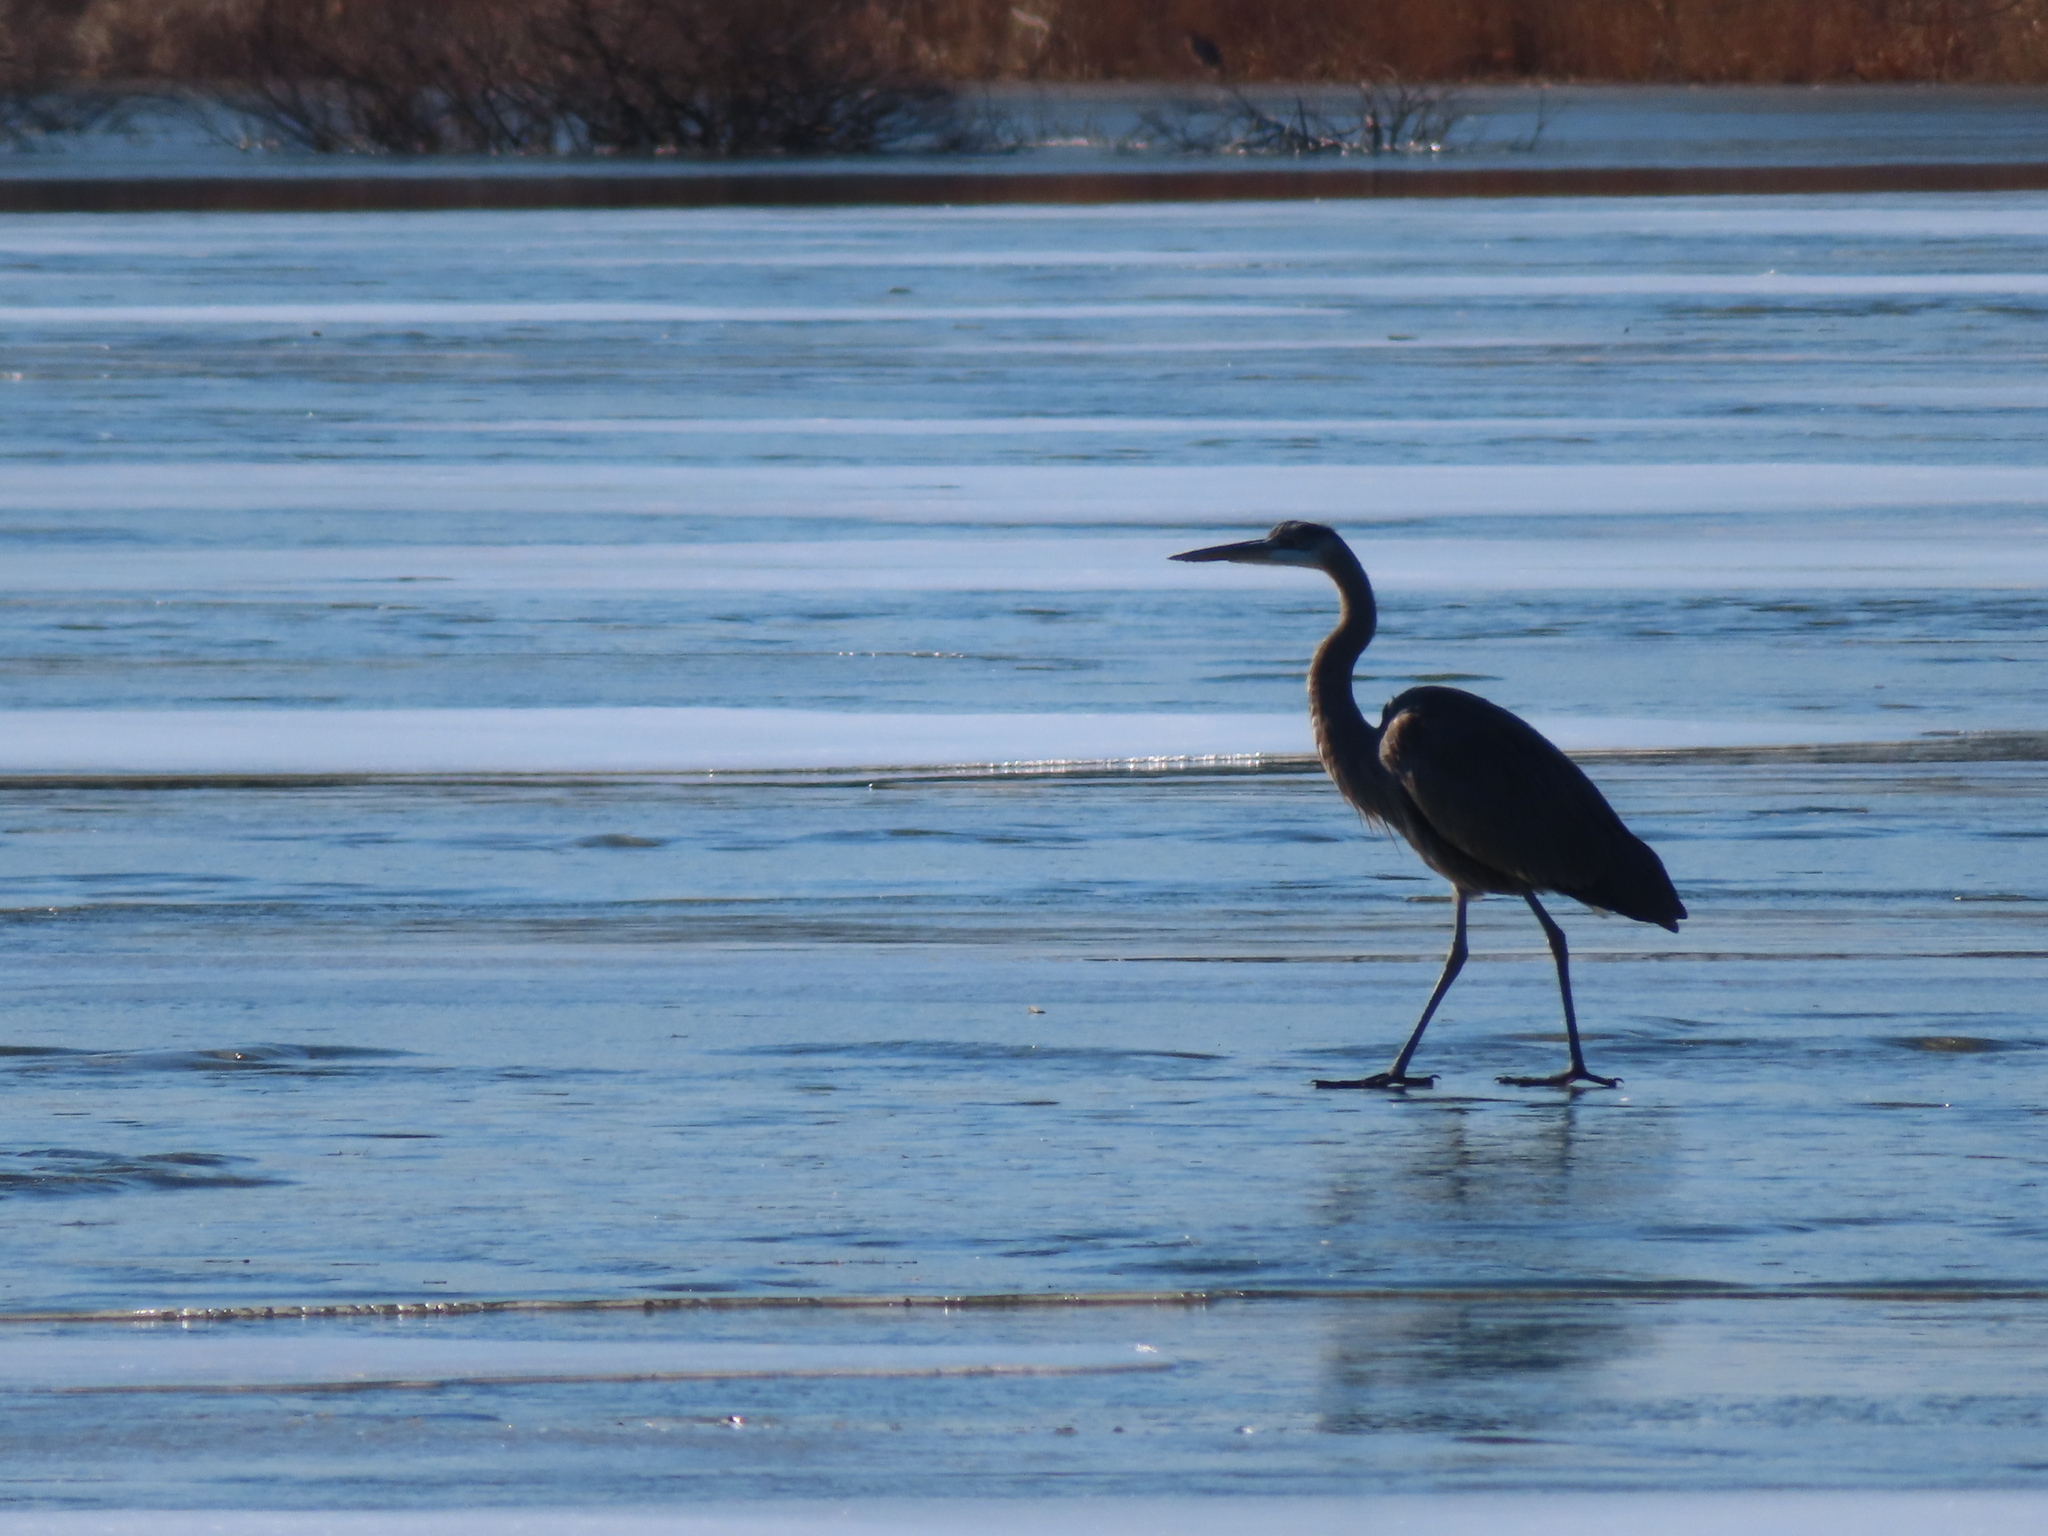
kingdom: Animalia
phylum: Chordata
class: Aves
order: Pelecaniformes
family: Ardeidae
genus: Ardea
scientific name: Ardea herodias
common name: Great blue heron
